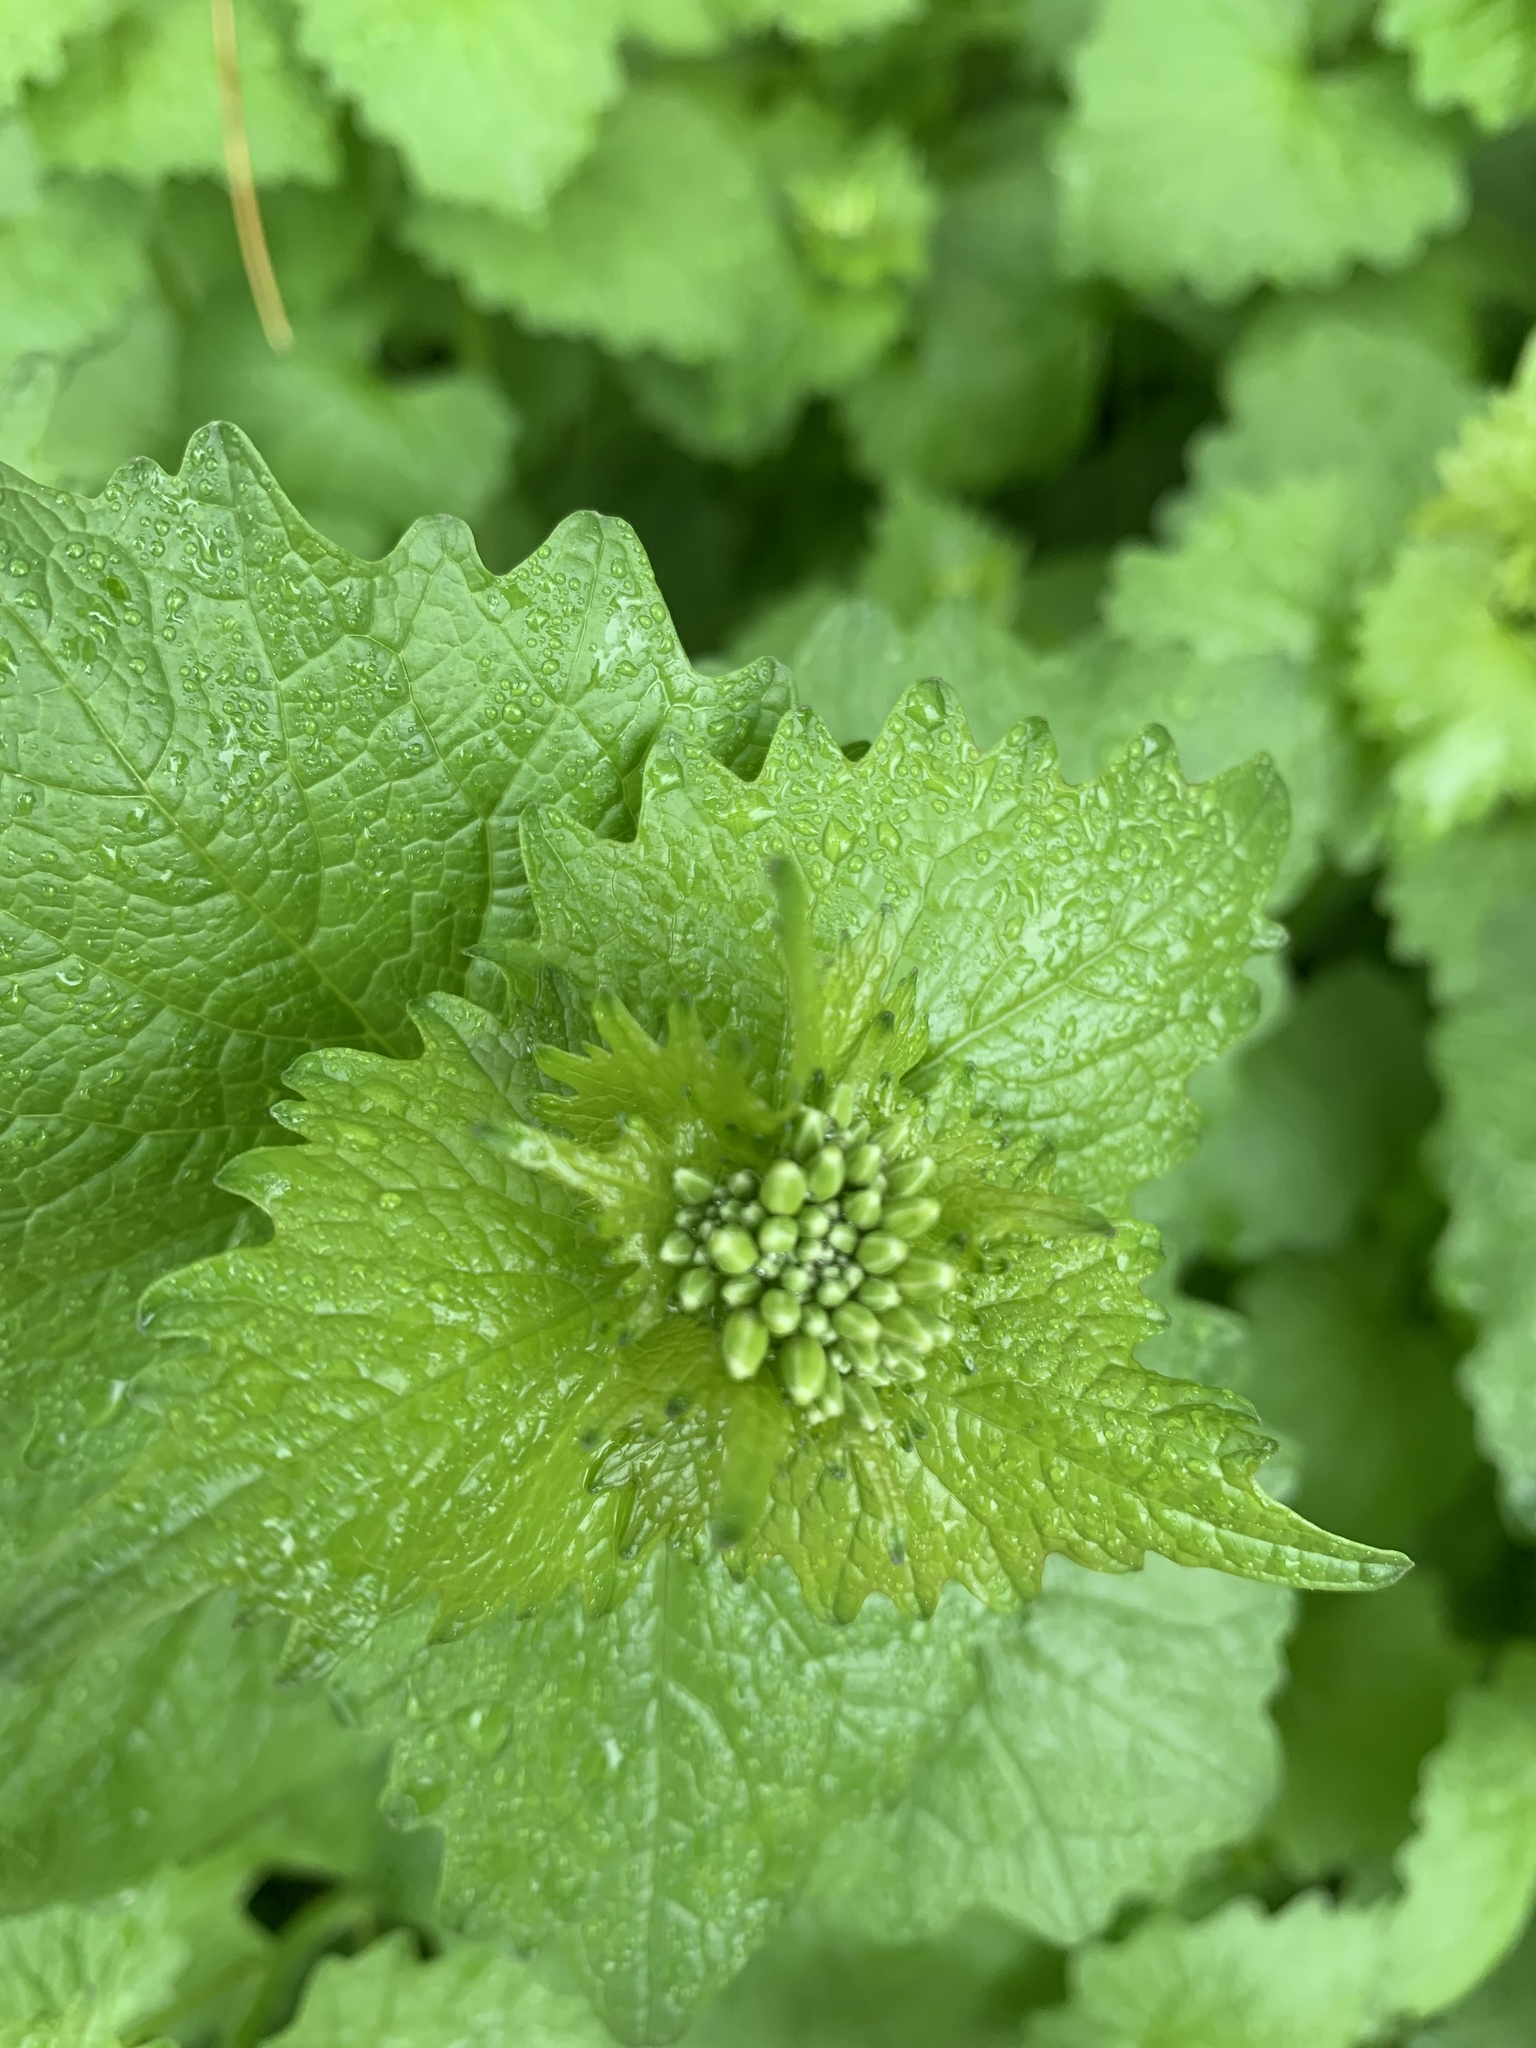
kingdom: Plantae
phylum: Tracheophyta
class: Magnoliopsida
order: Brassicales
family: Brassicaceae
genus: Alliaria
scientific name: Alliaria petiolata
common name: Garlic mustard
